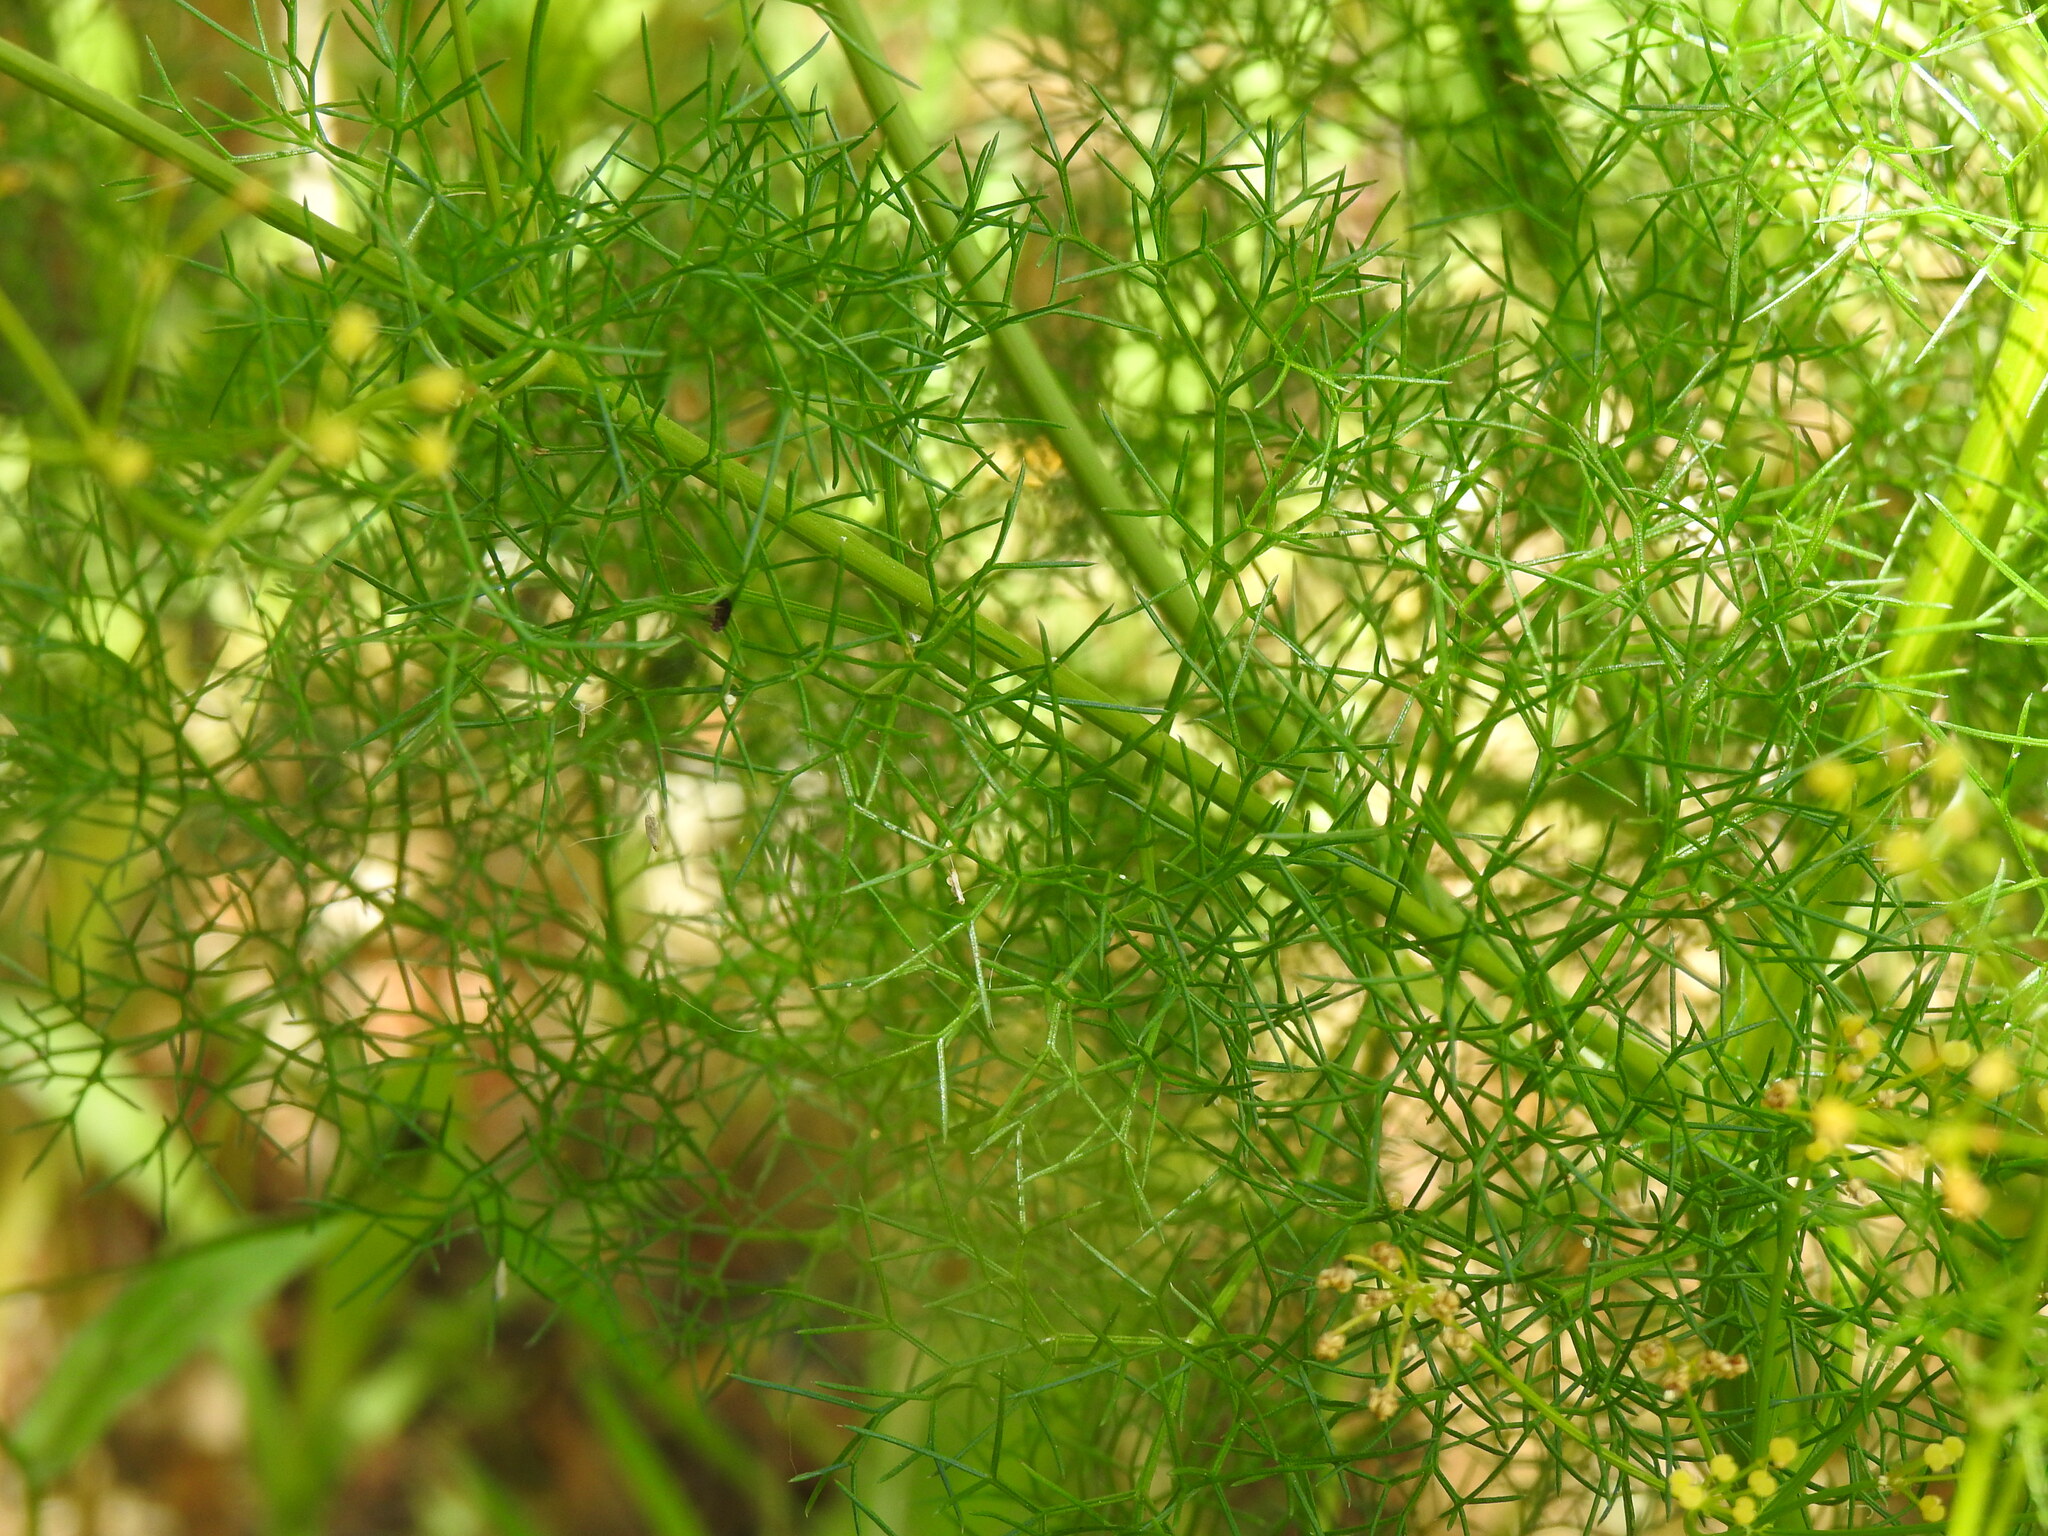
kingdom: Plantae
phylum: Tracheophyta
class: Magnoliopsida
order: Apiales
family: Apiaceae
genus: Prangos
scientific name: Prangos trifida
